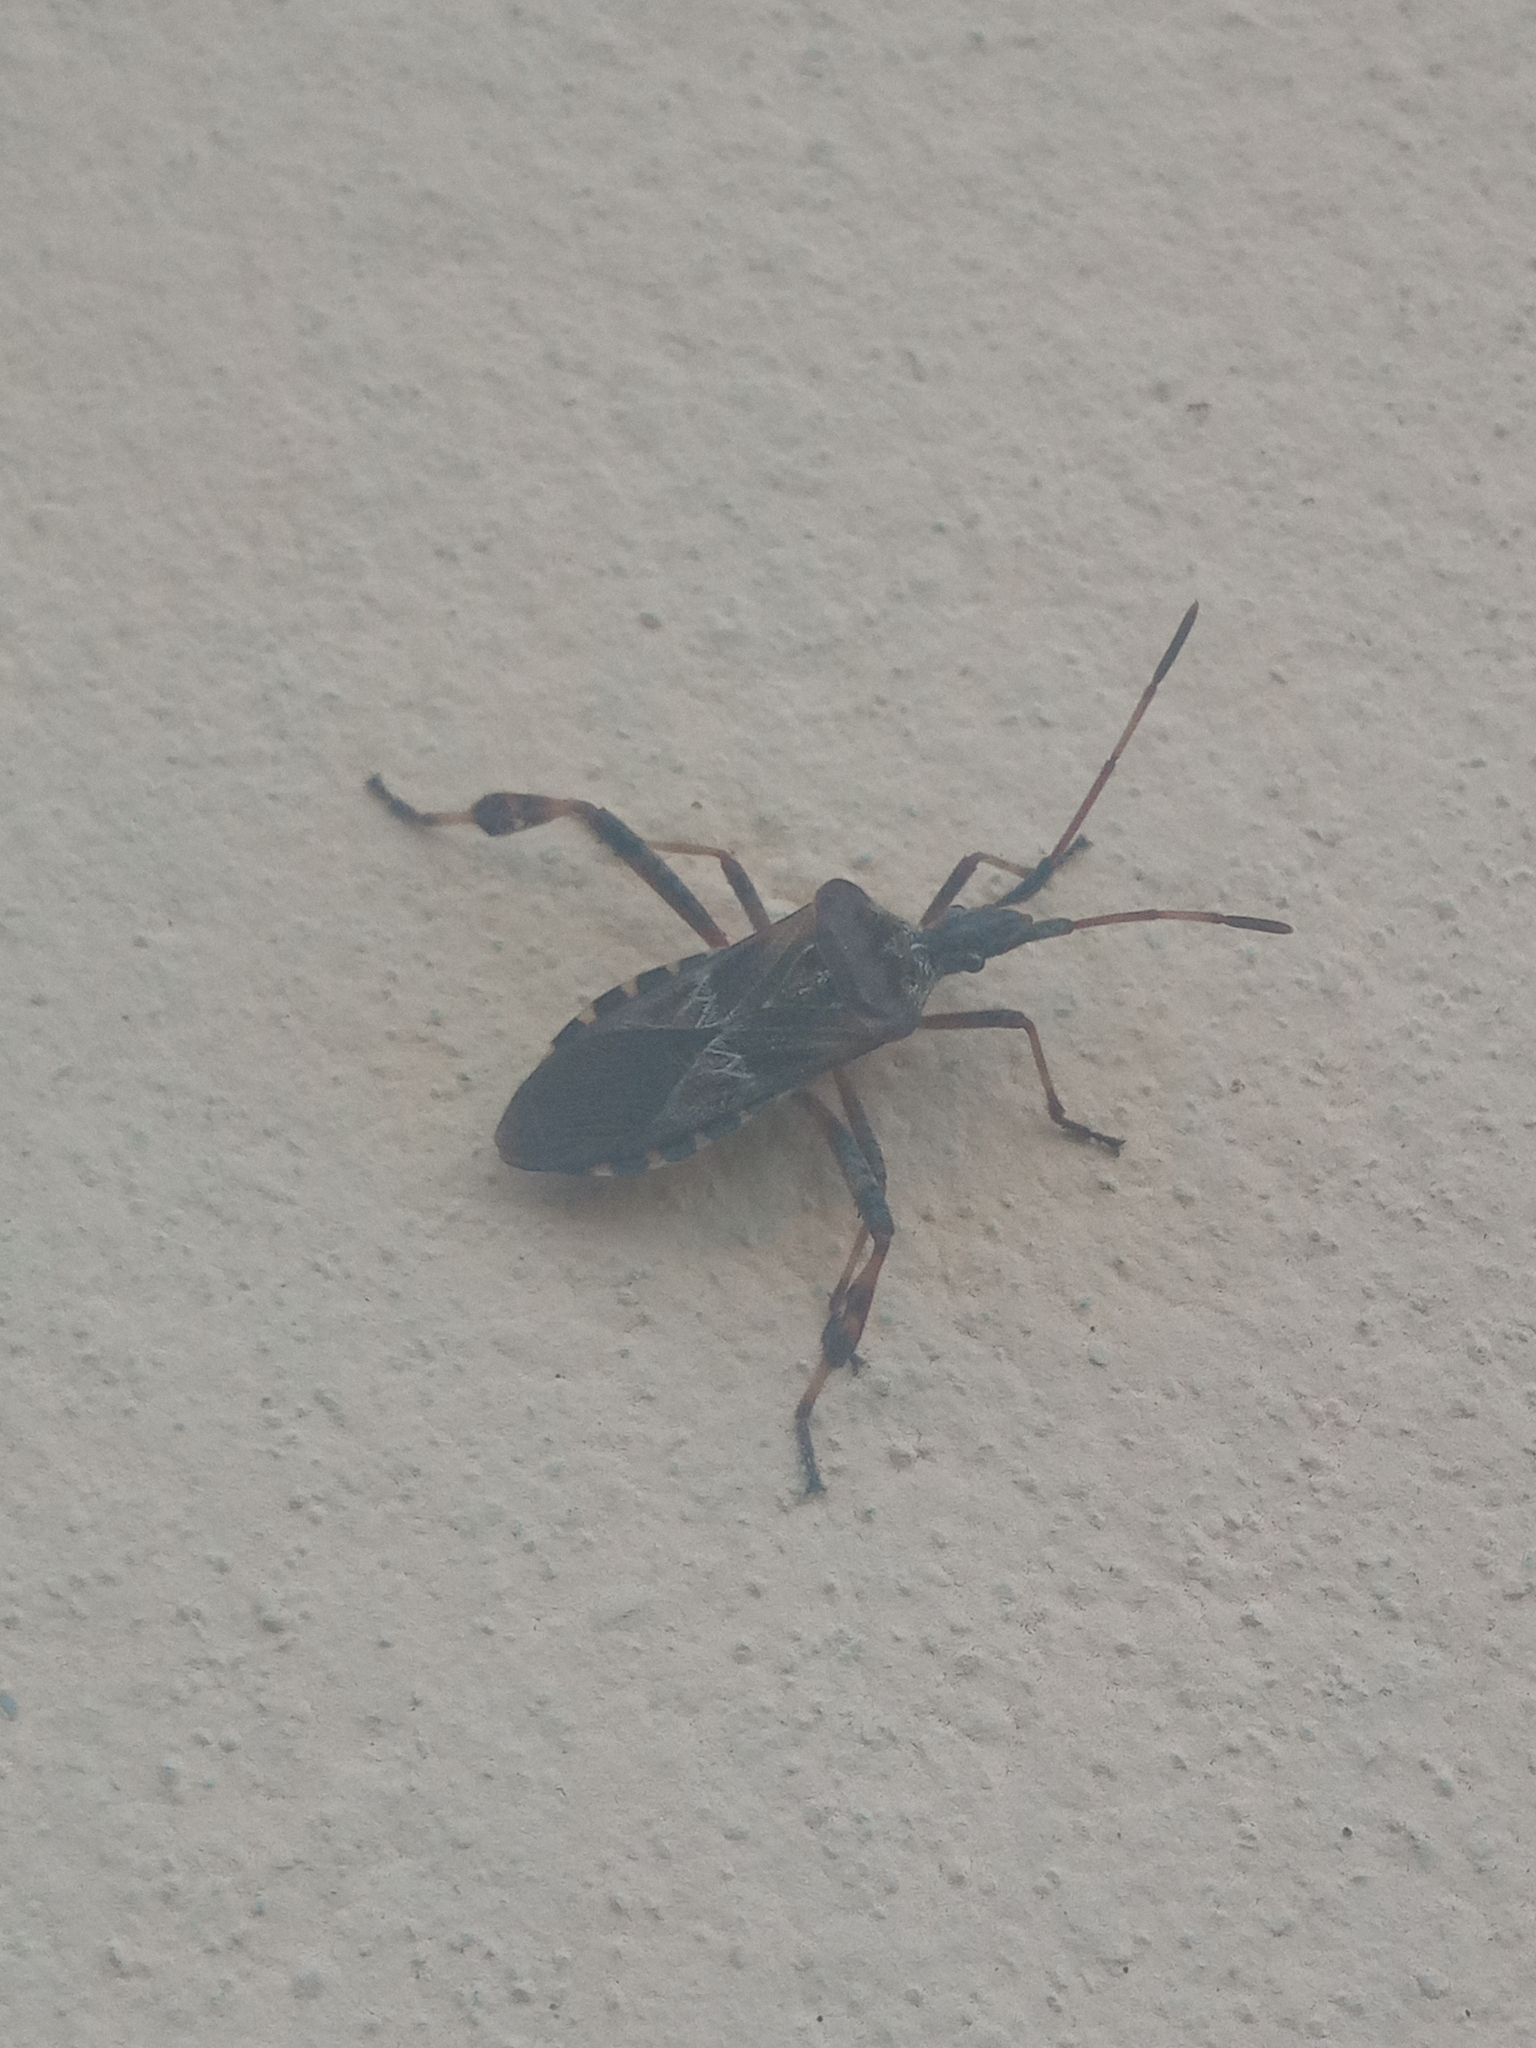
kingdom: Animalia
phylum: Arthropoda
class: Insecta
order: Hemiptera
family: Coreidae
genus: Leptoglossus
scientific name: Leptoglossus occidentalis
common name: Western conifer-seed bug
